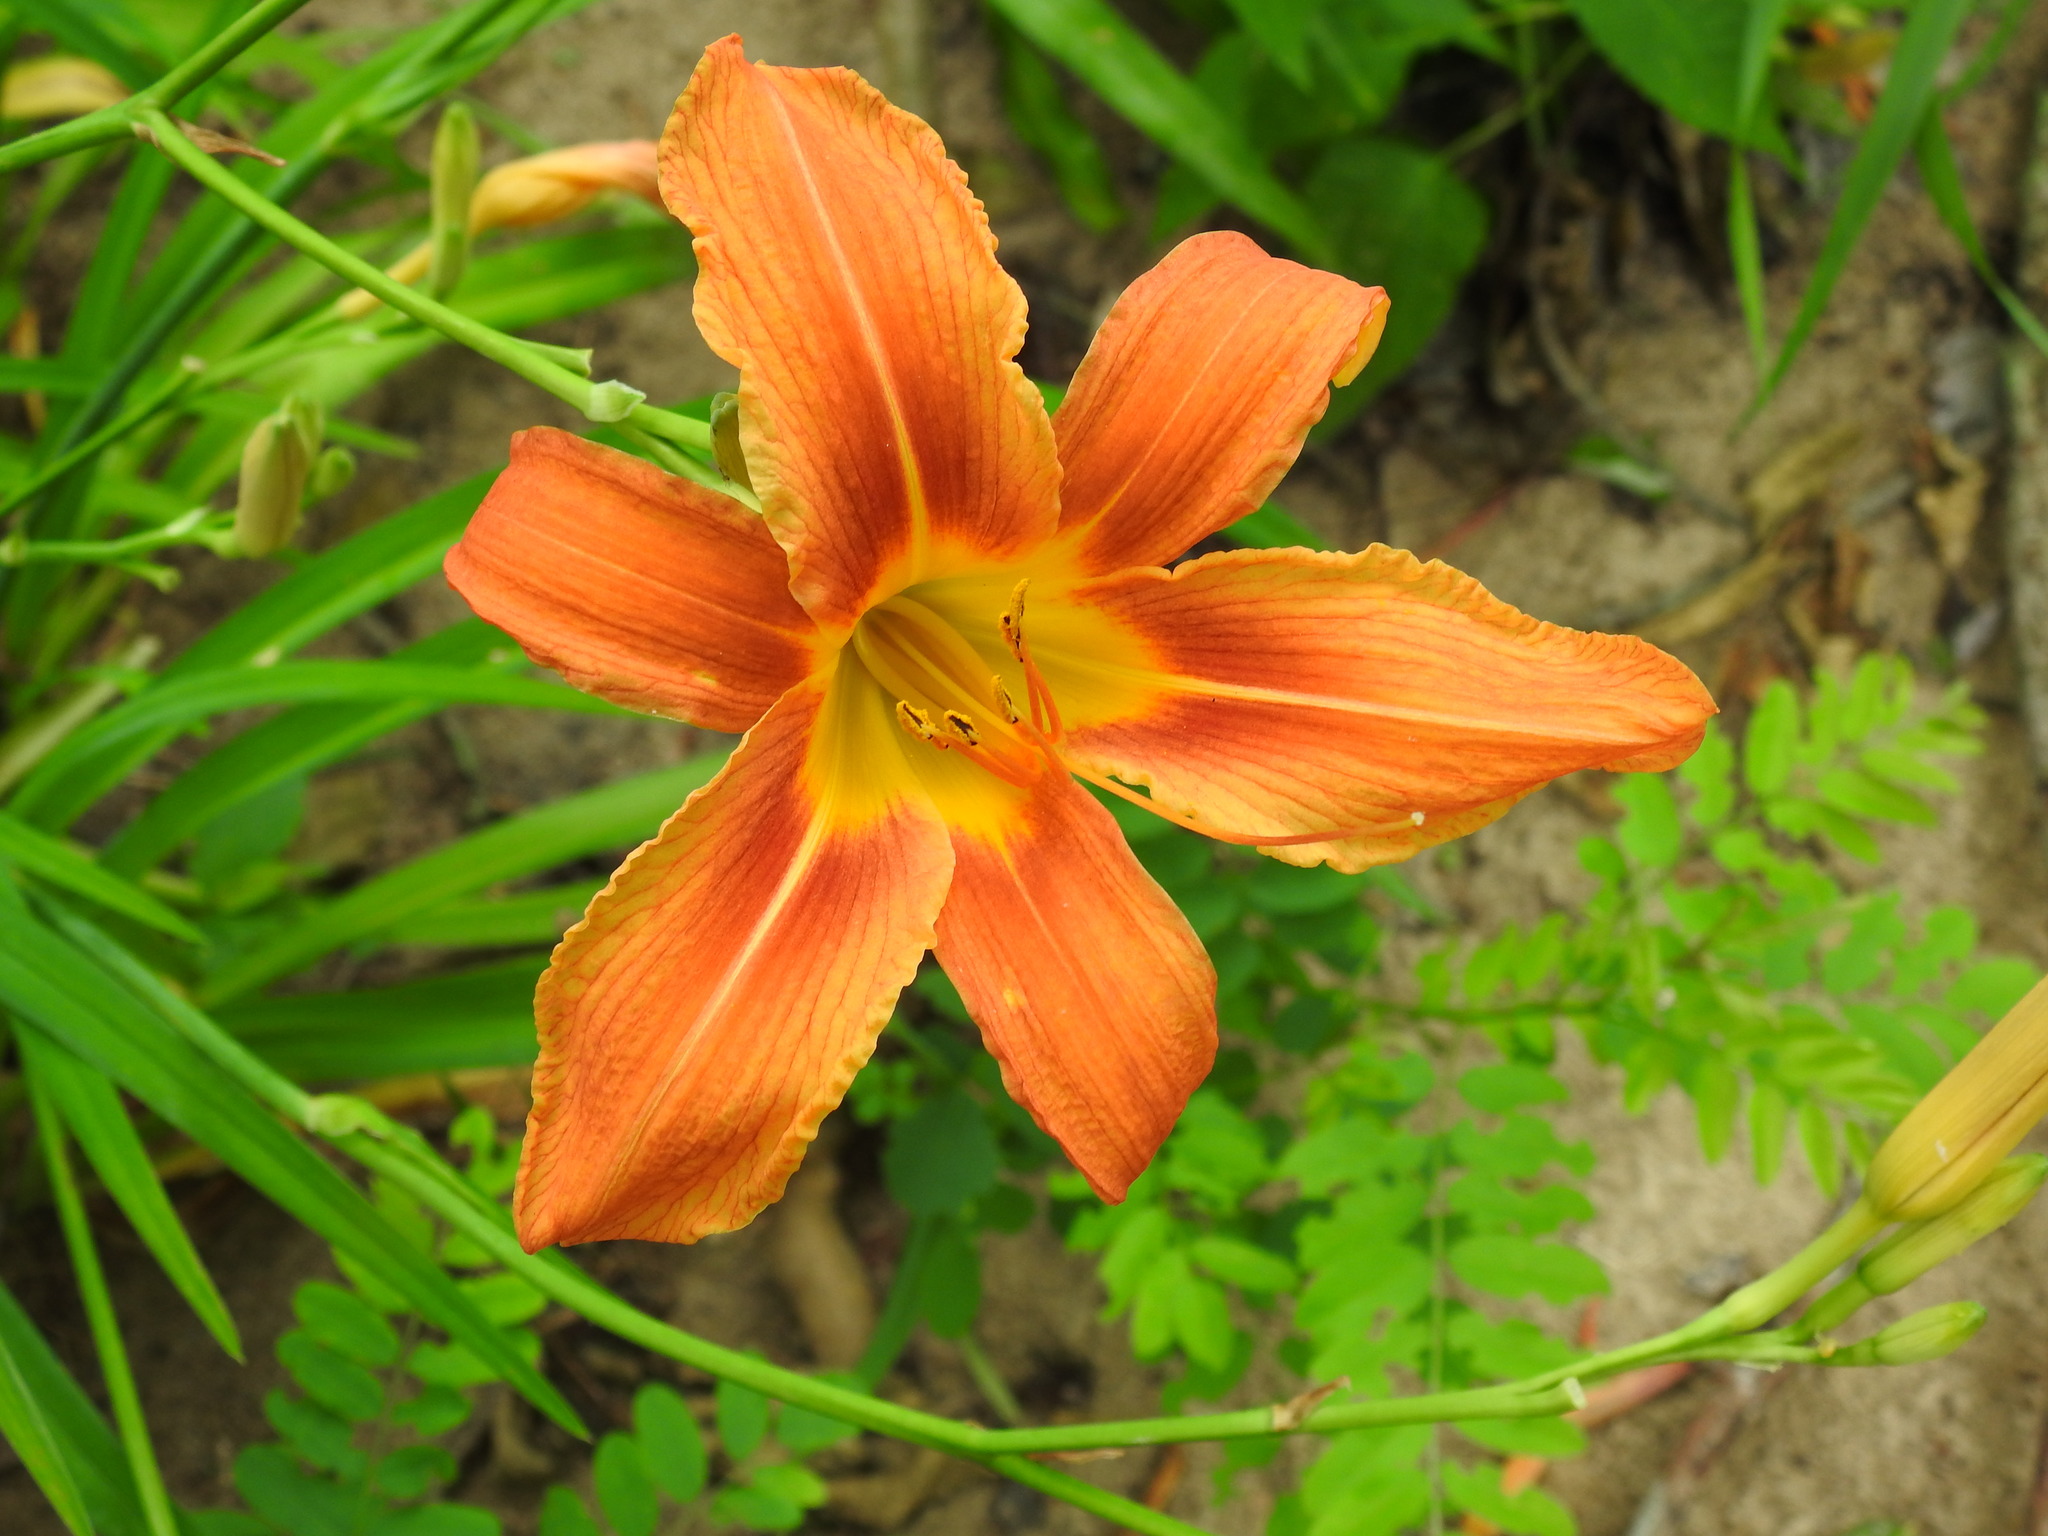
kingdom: Plantae
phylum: Tracheophyta
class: Liliopsida
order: Asparagales
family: Asphodelaceae
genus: Hemerocallis
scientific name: Hemerocallis fulva
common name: Orange day-lily
